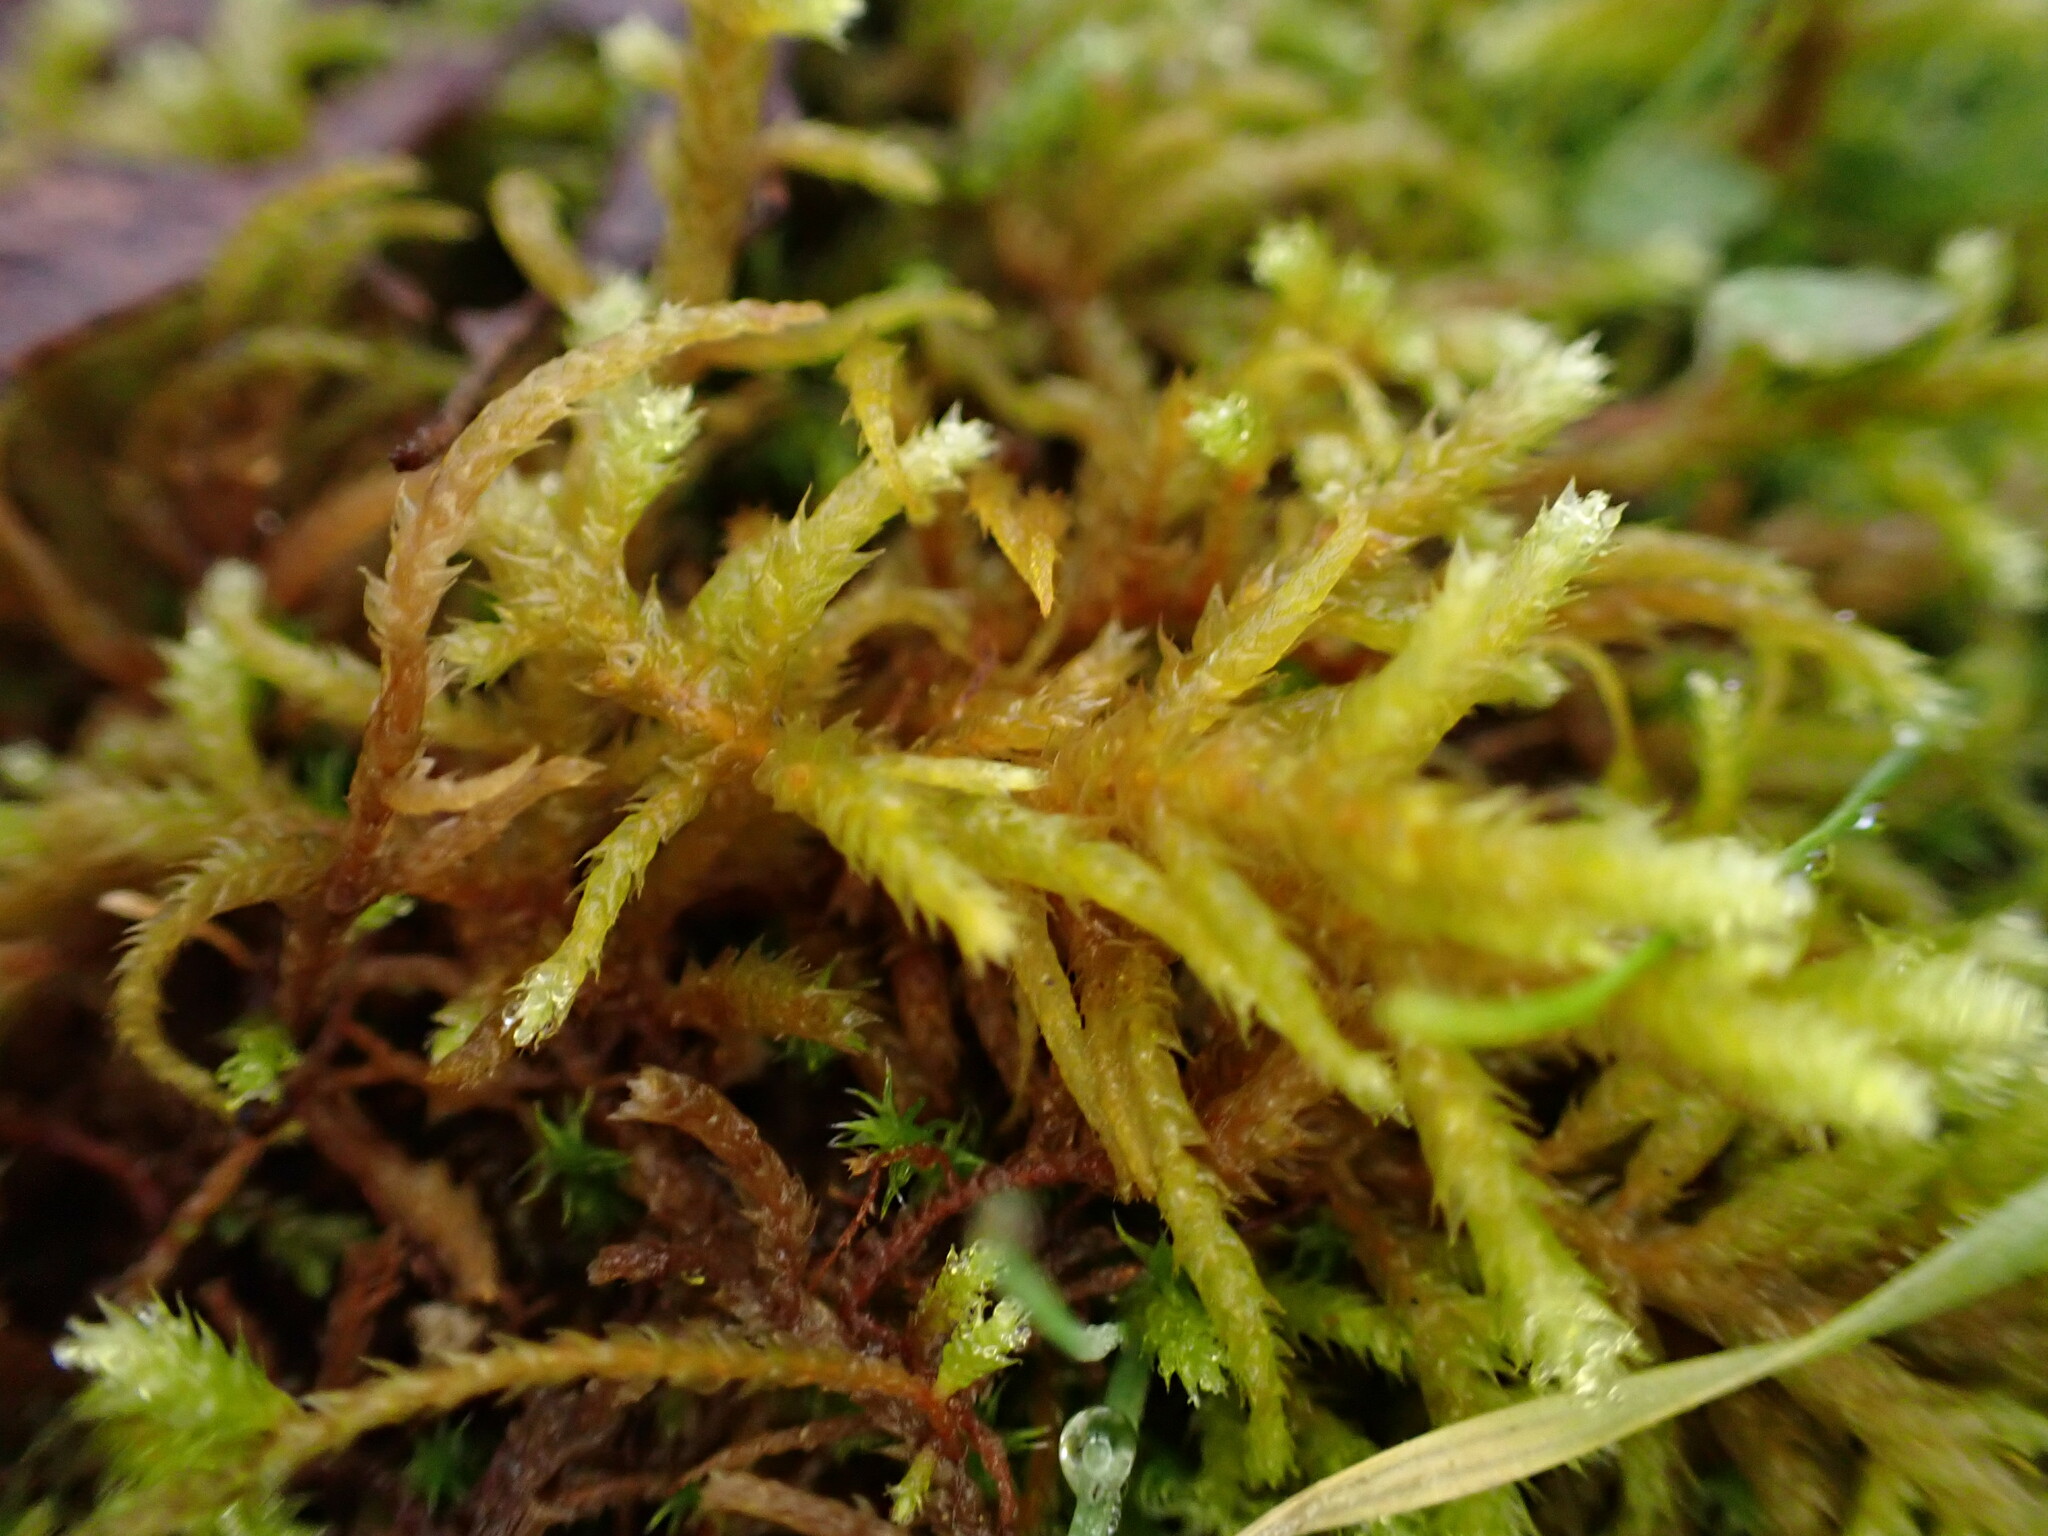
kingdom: Plantae
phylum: Bryophyta
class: Bryopsida
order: Hypnales
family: Antitrichiaceae
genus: Antitrichia
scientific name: Antitrichia californica
